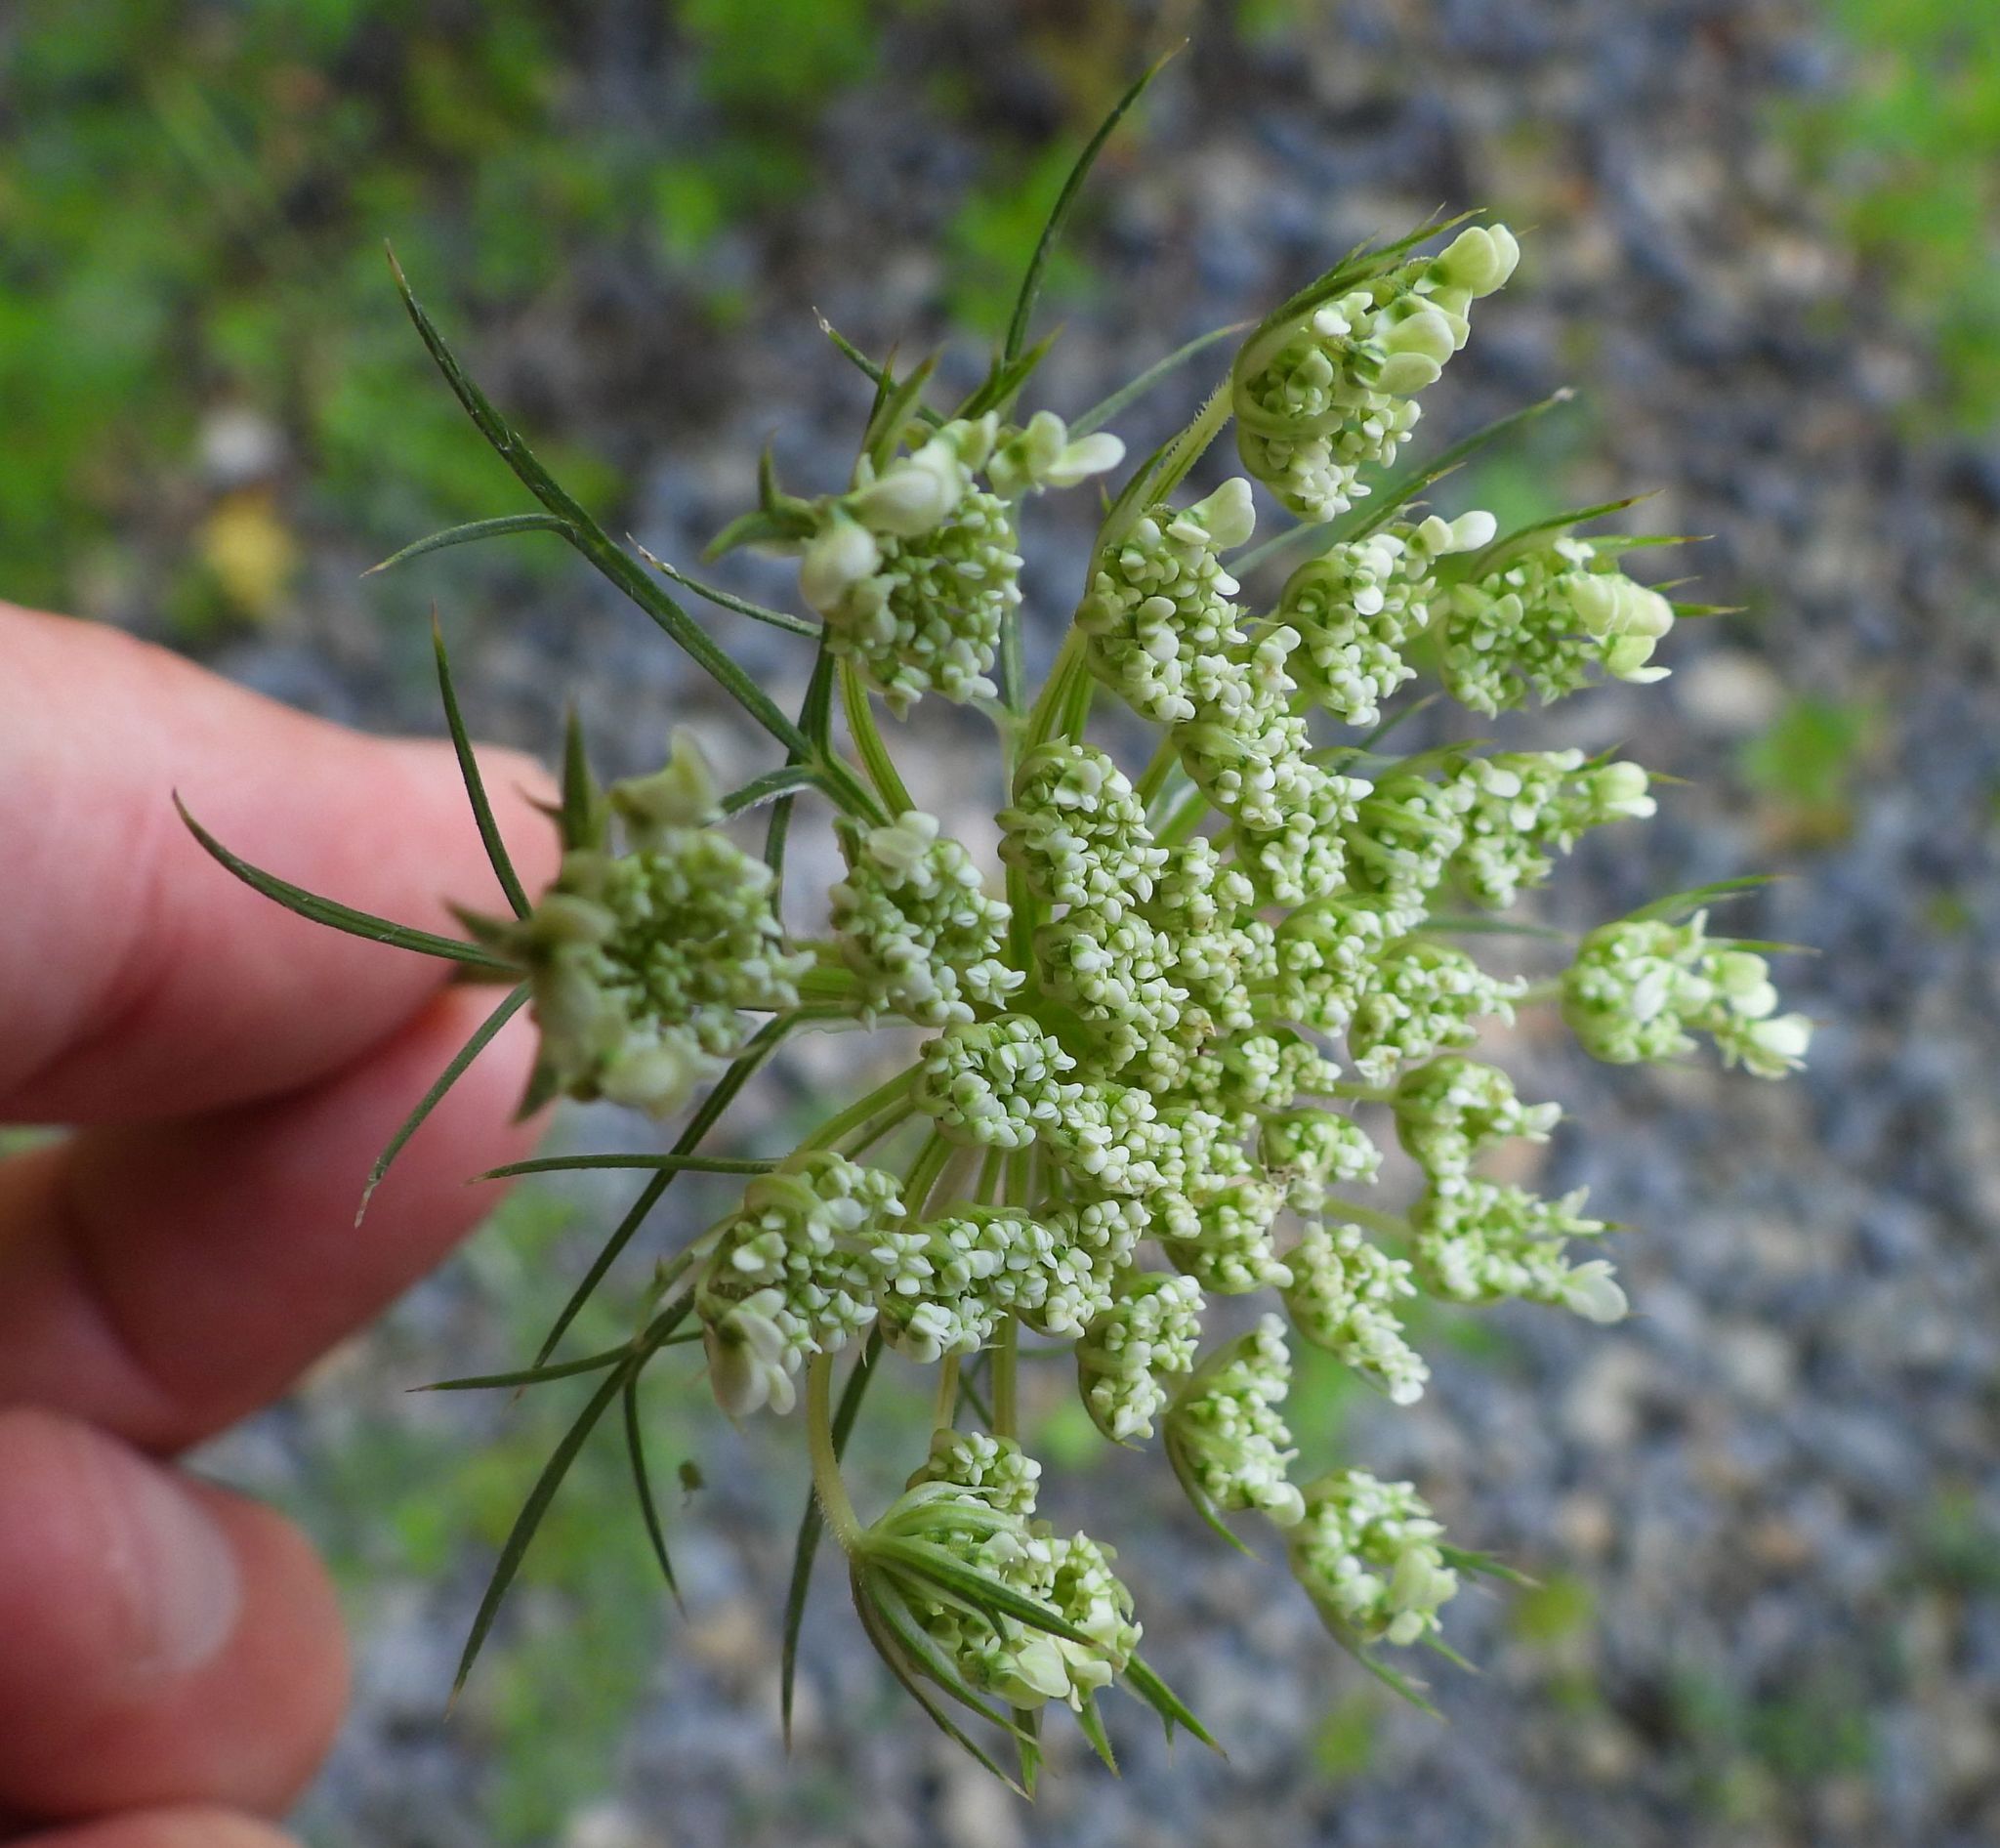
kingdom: Plantae
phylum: Tracheophyta
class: Magnoliopsida
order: Apiales
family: Apiaceae
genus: Daucus
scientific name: Daucus carota
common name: Wild carrot
